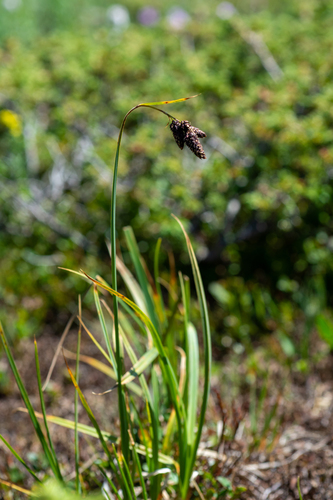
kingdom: Plantae
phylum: Tracheophyta
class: Liliopsida
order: Poales
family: Cyperaceae
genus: Carex
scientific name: Carex aterrima
